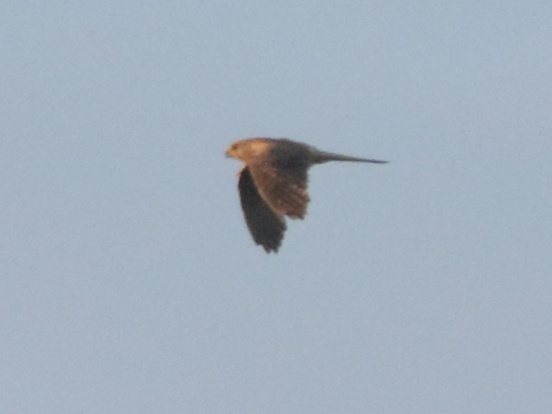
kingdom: Animalia
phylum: Chordata
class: Aves
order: Falconiformes
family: Falconidae
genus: Falco
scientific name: Falco tinnunculus
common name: Common kestrel
